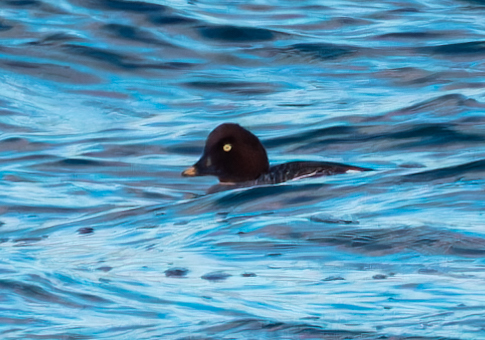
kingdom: Animalia
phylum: Chordata
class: Aves
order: Anseriformes
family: Anatidae
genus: Bucephala
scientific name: Bucephala clangula
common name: Common goldeneye
